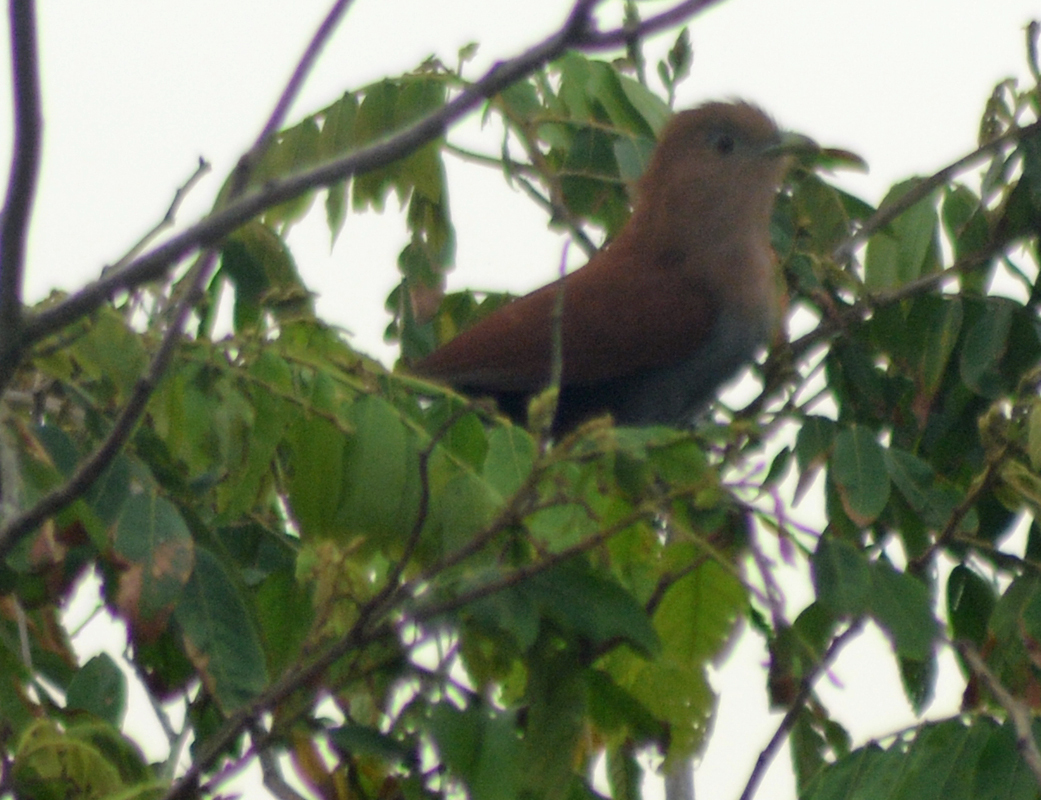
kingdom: Animalia
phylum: Chordata
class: Aves
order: Cuculiformes
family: Cuculidae
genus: Piaya
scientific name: Piaya cayana
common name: Squirrel cuckoo
